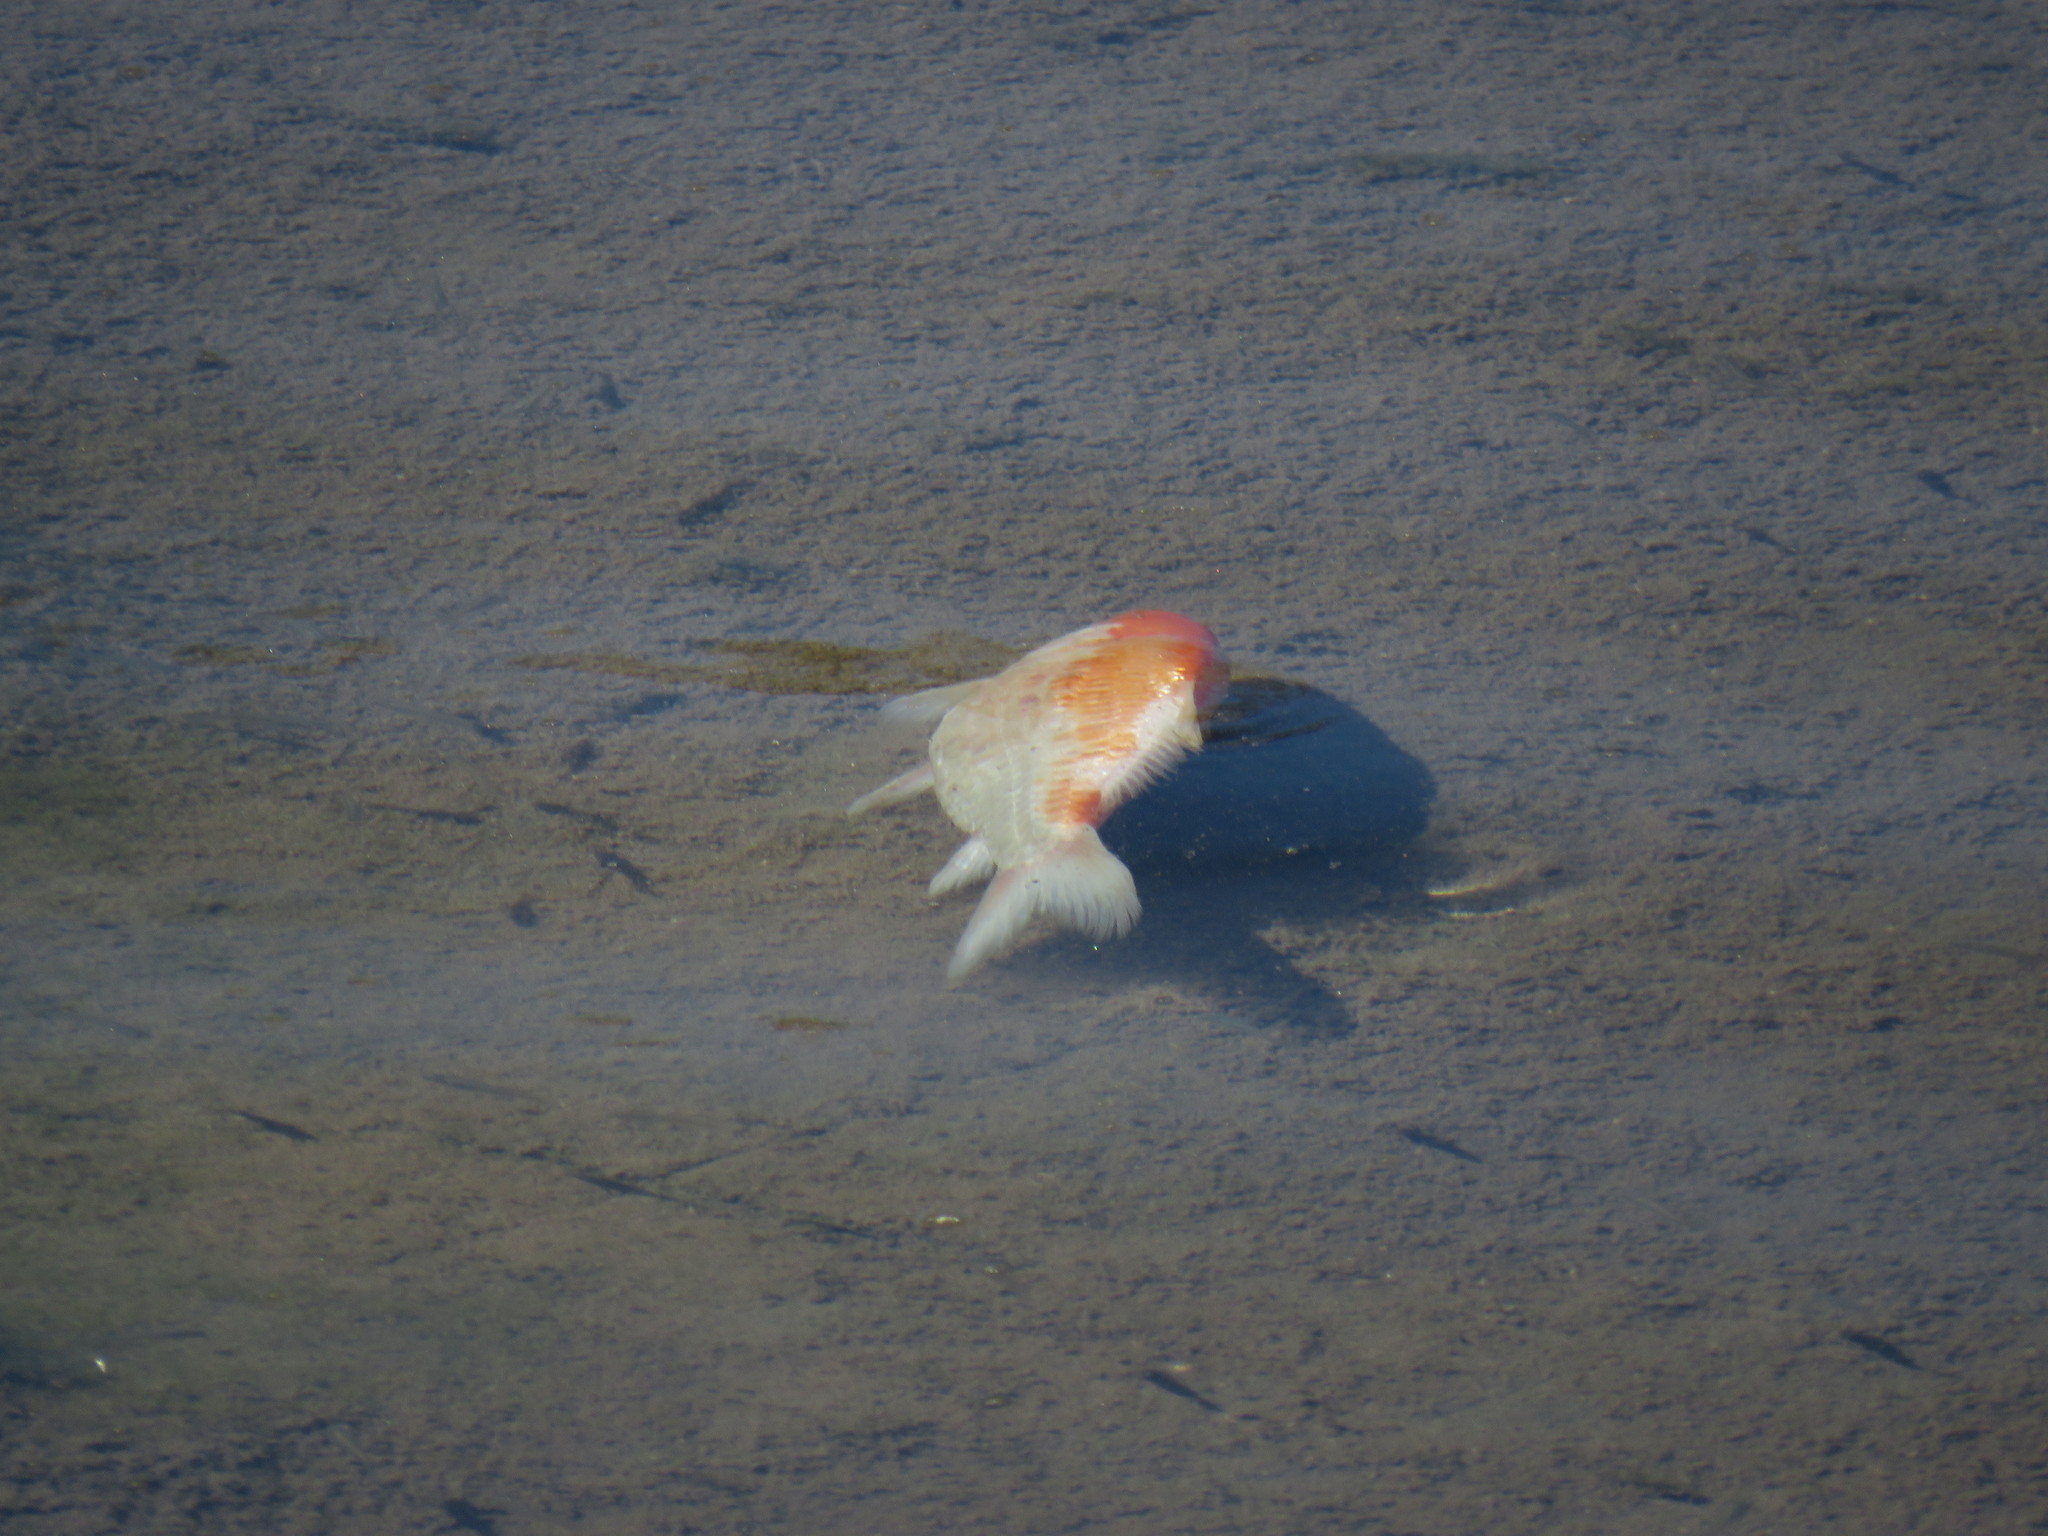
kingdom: Animalia
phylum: Chordata
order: Cypriniformes
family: Cyprinidae
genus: Cyprinus
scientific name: Cyprinus rubrofuscus
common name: Koi
